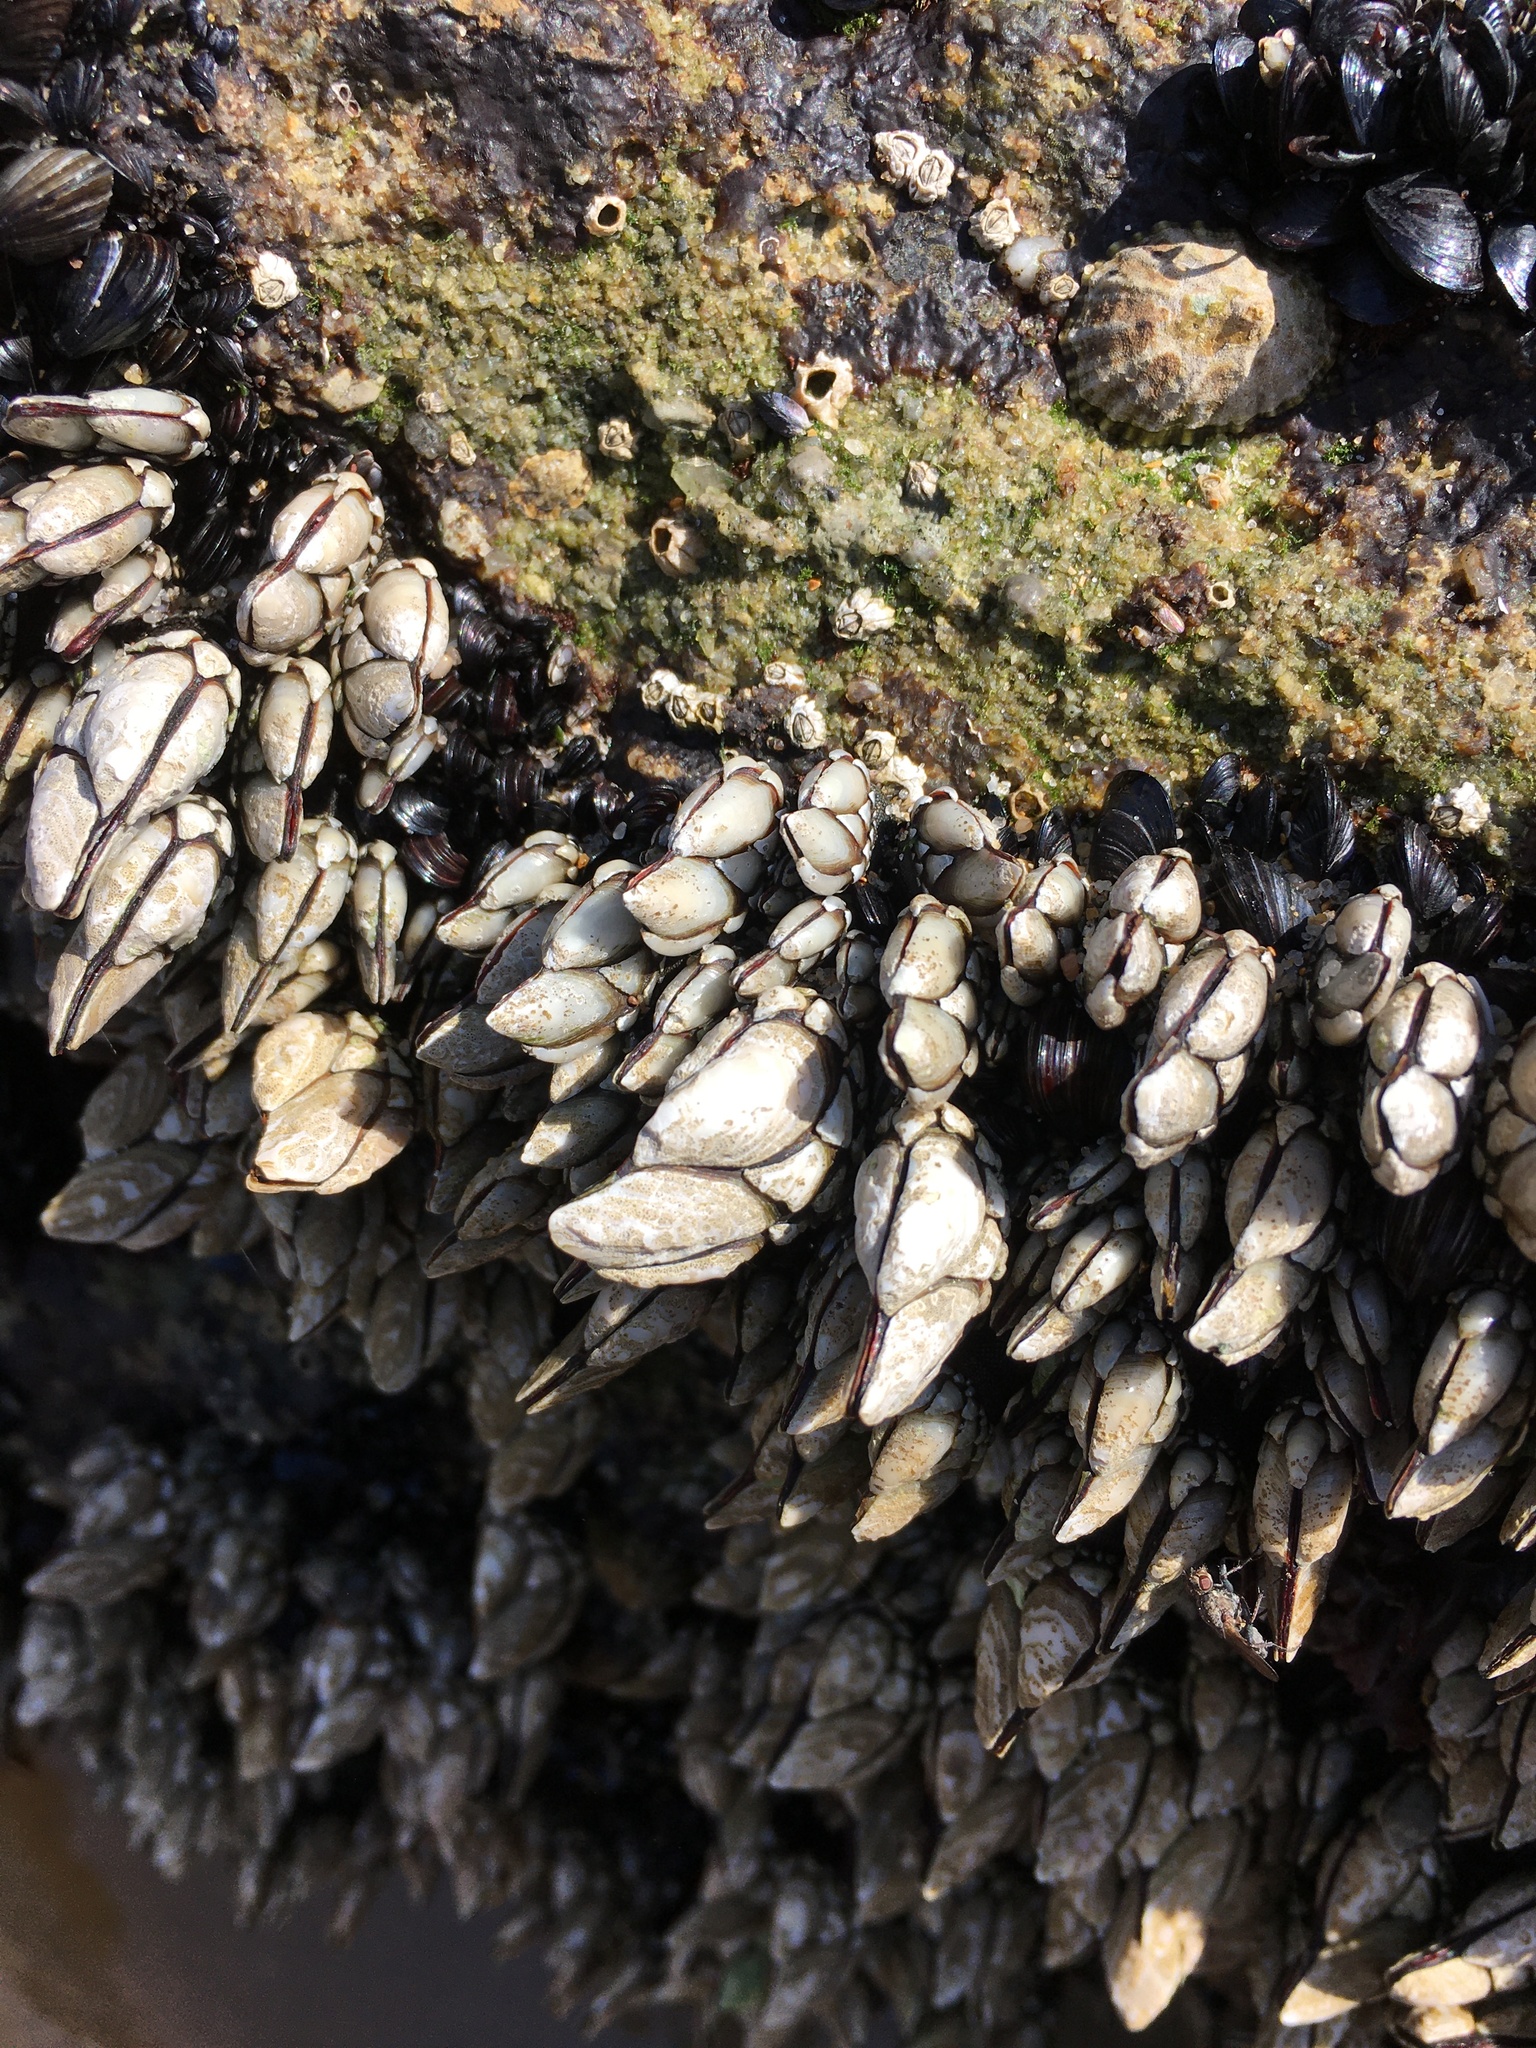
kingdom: Animalia
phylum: Arthropoda
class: Maxillopoda
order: Pedunculata
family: Pollicipedidae
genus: Pollicipes
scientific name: Pollicipes pollicipes
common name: Gooseneck barnacle
